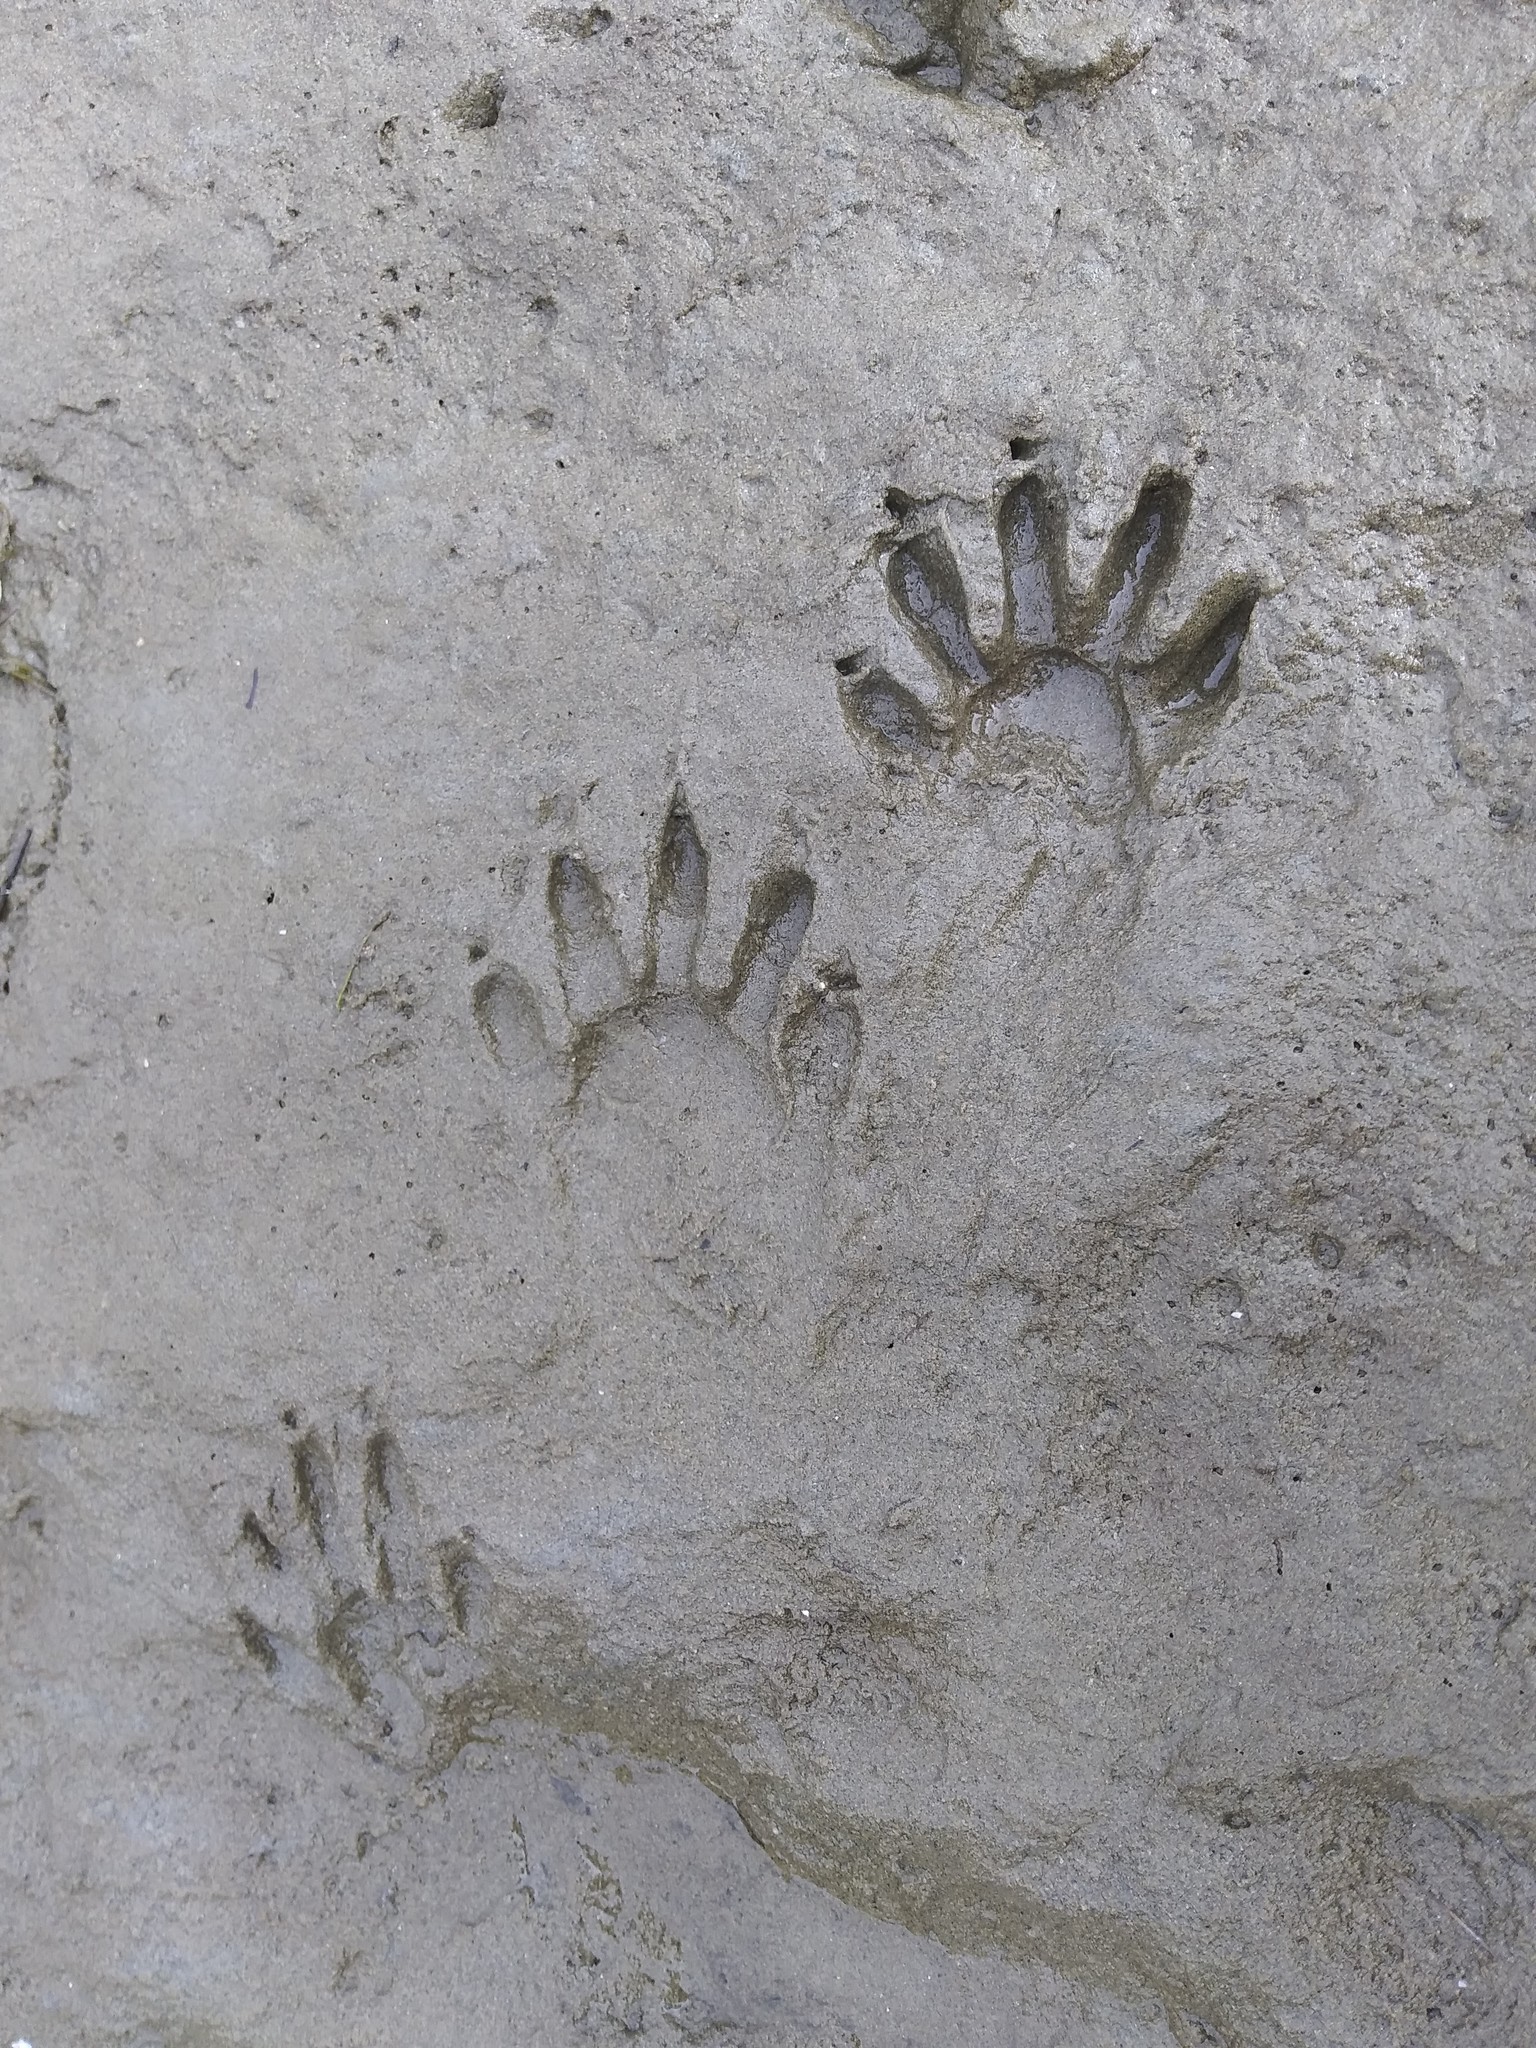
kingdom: Animalia
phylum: Chordata
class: Mammalia
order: Carnivora
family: Procyonidae
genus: Procyon
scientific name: Procyon lotor
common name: Raccoon
